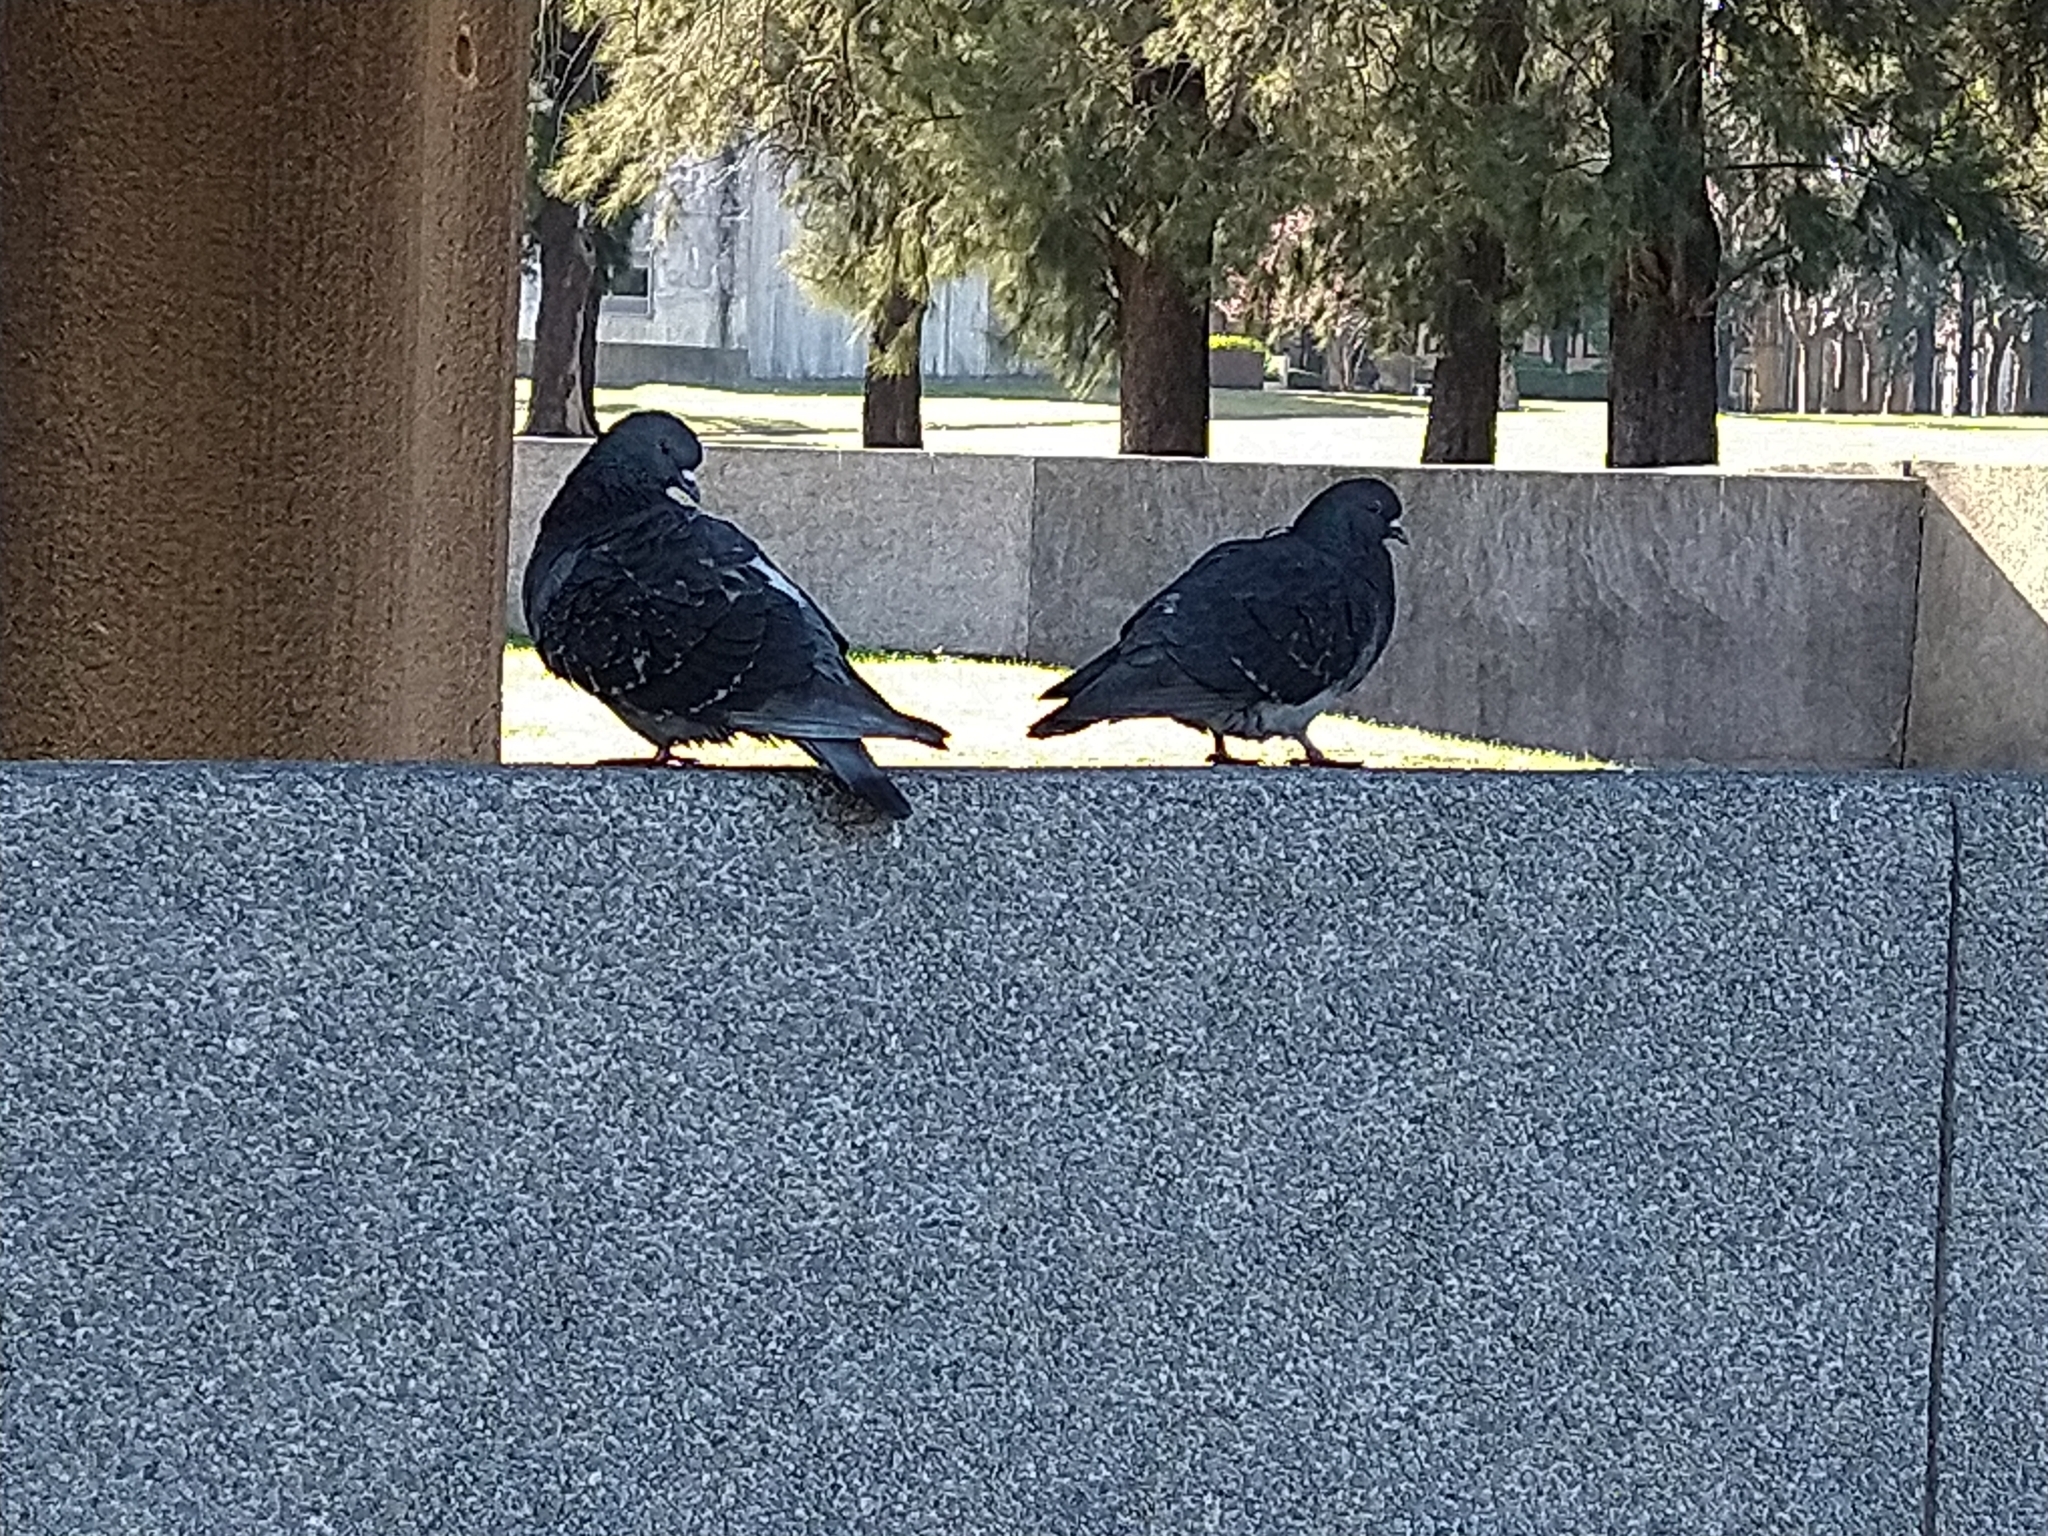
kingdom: Animalia
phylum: Chordata
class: Aves
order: Columbiformes
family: Columbidae
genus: Columba
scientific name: Columba livia
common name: Rock pigeon
